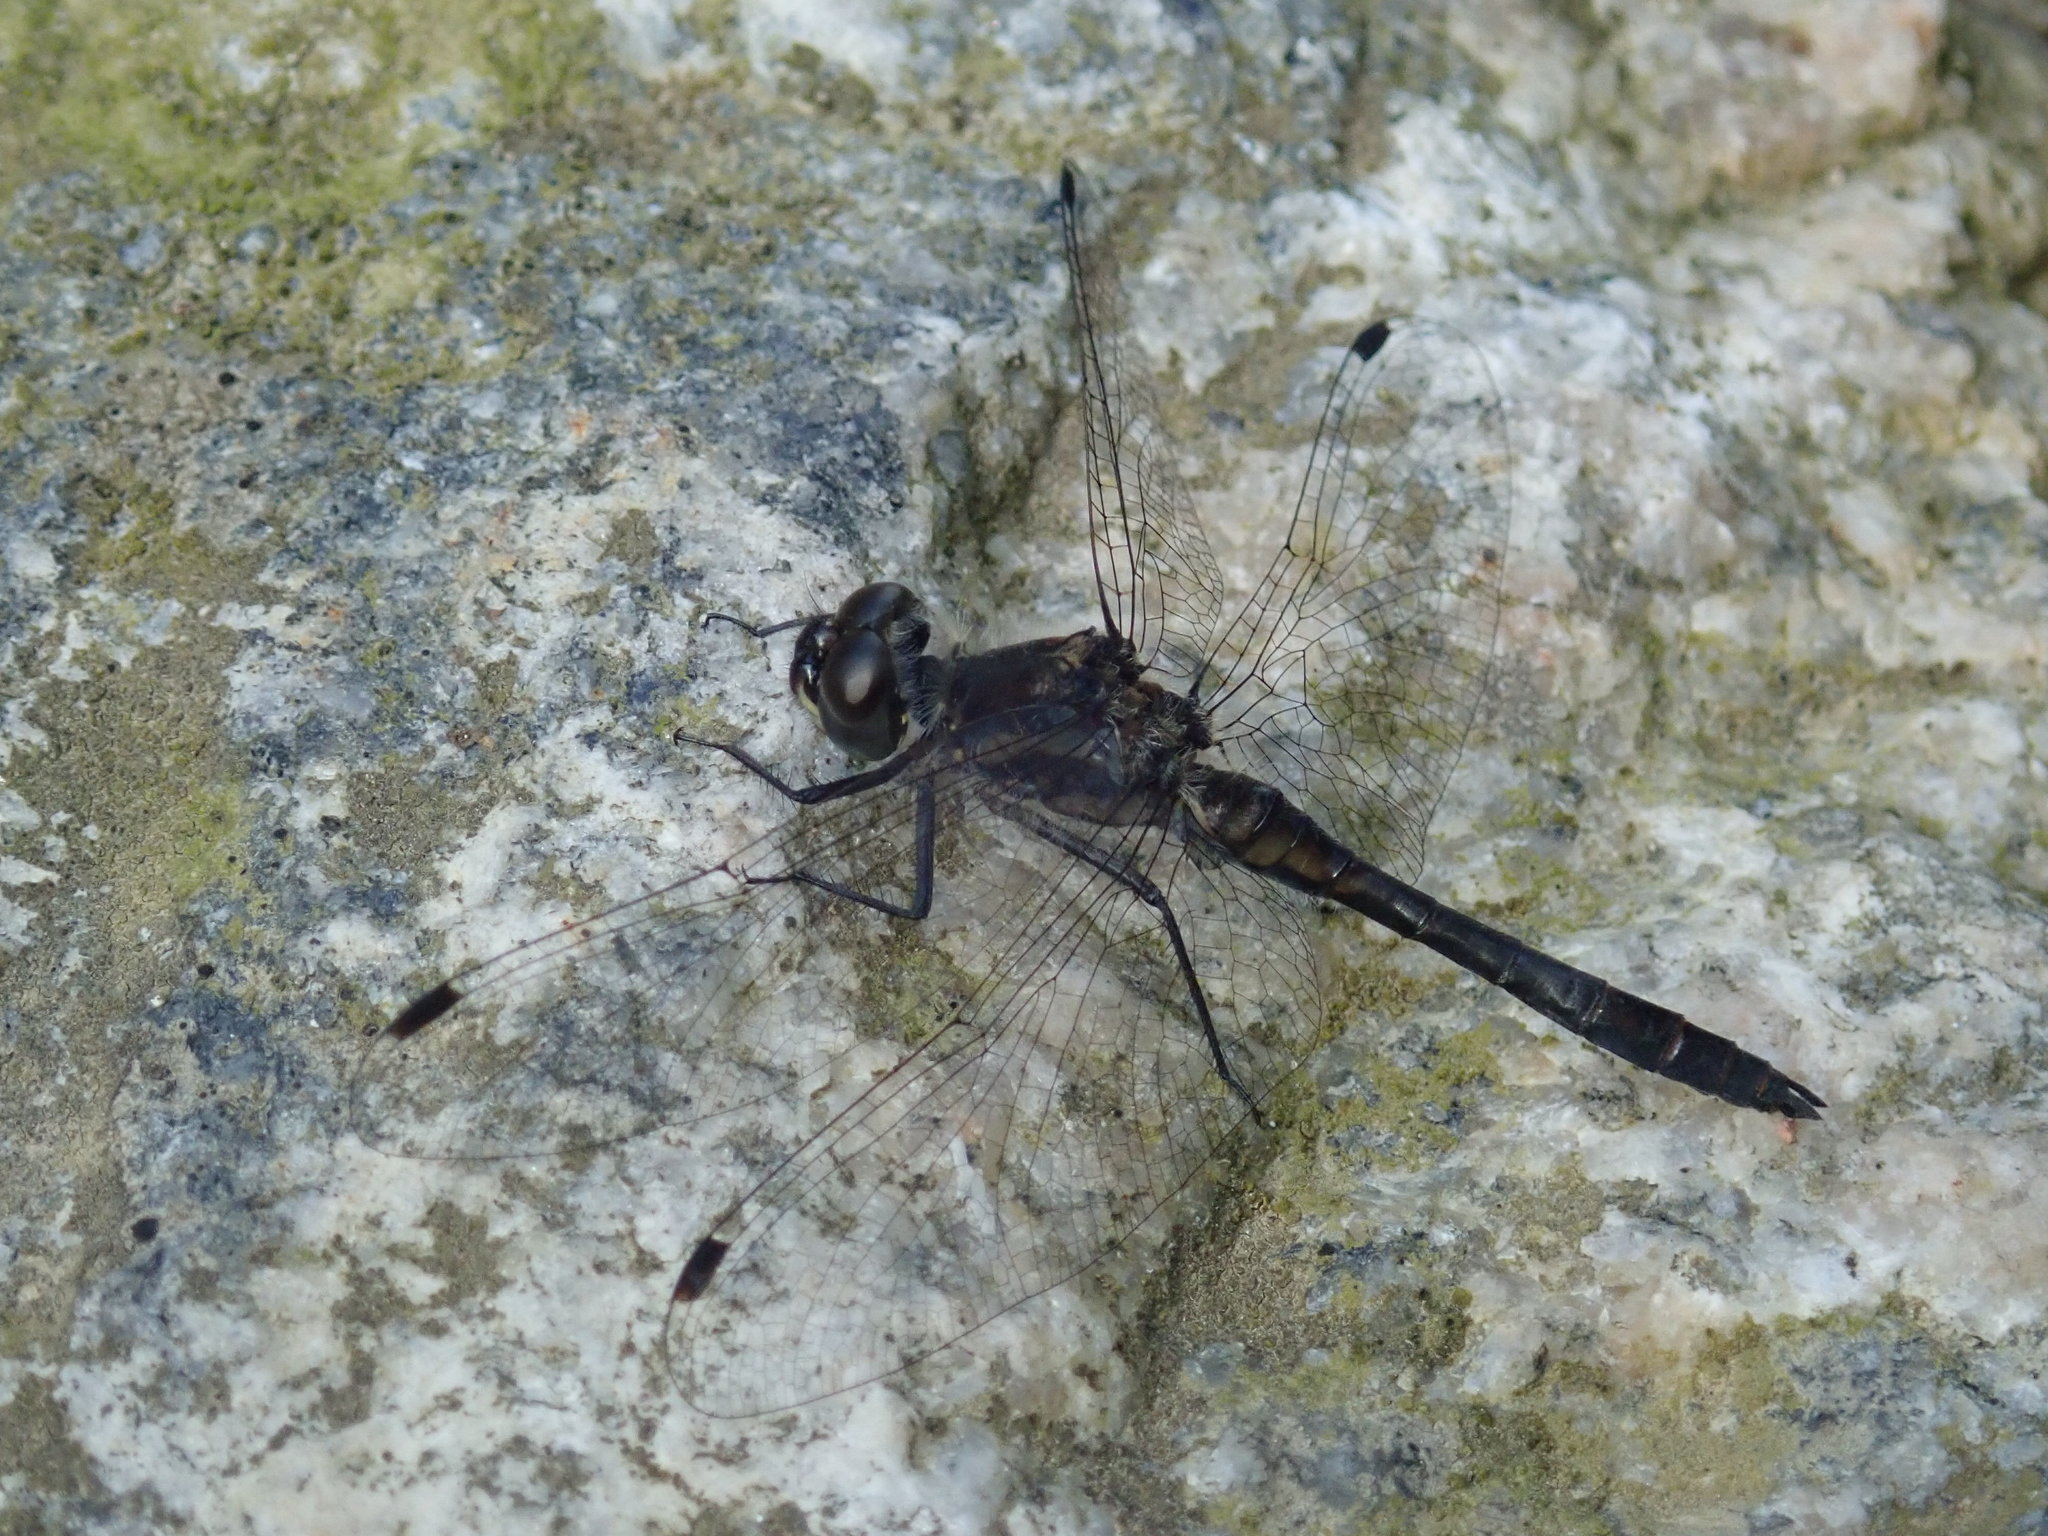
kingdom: Animalia
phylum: Arthropoda
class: Insecta
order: Odonata
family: Libellulidae
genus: Sympetrum
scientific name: Sympetrum danae
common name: Black darter
